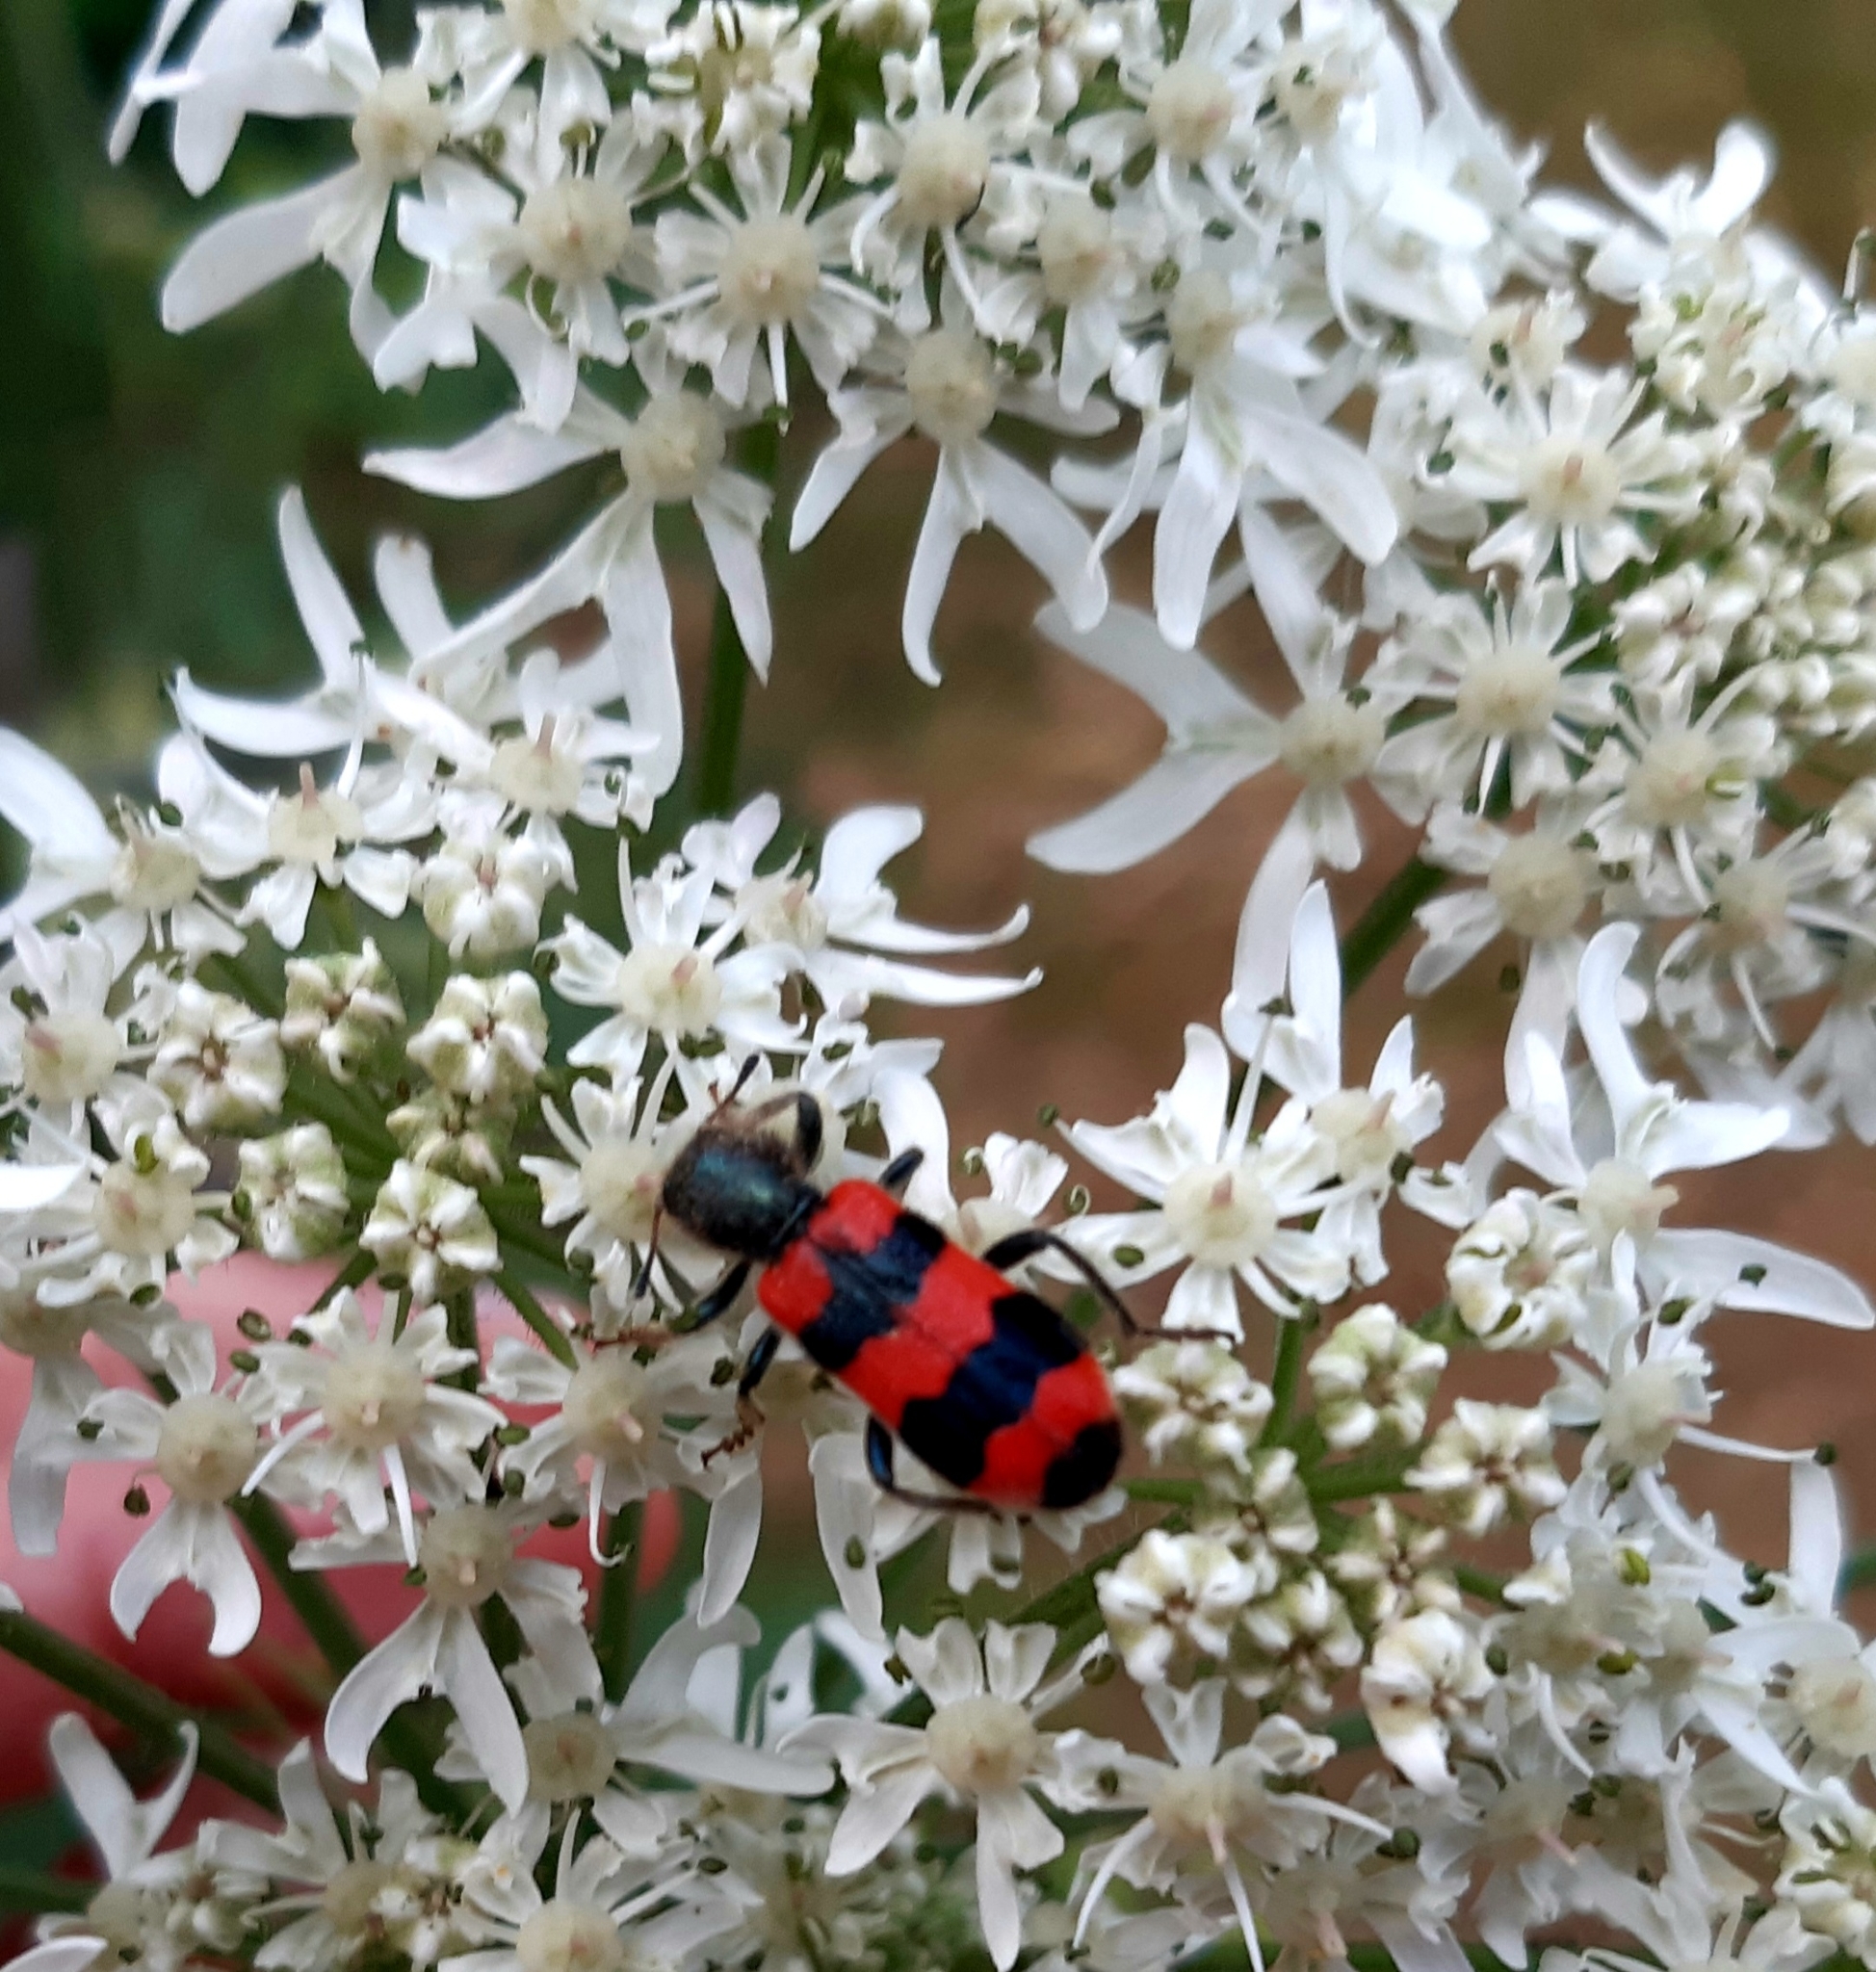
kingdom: Animalia
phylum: Arthropoda
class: Insecta
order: Coleoptera
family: Cleridae
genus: Trichodes
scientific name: Trichodes apiarius
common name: Bee-eating beetle
